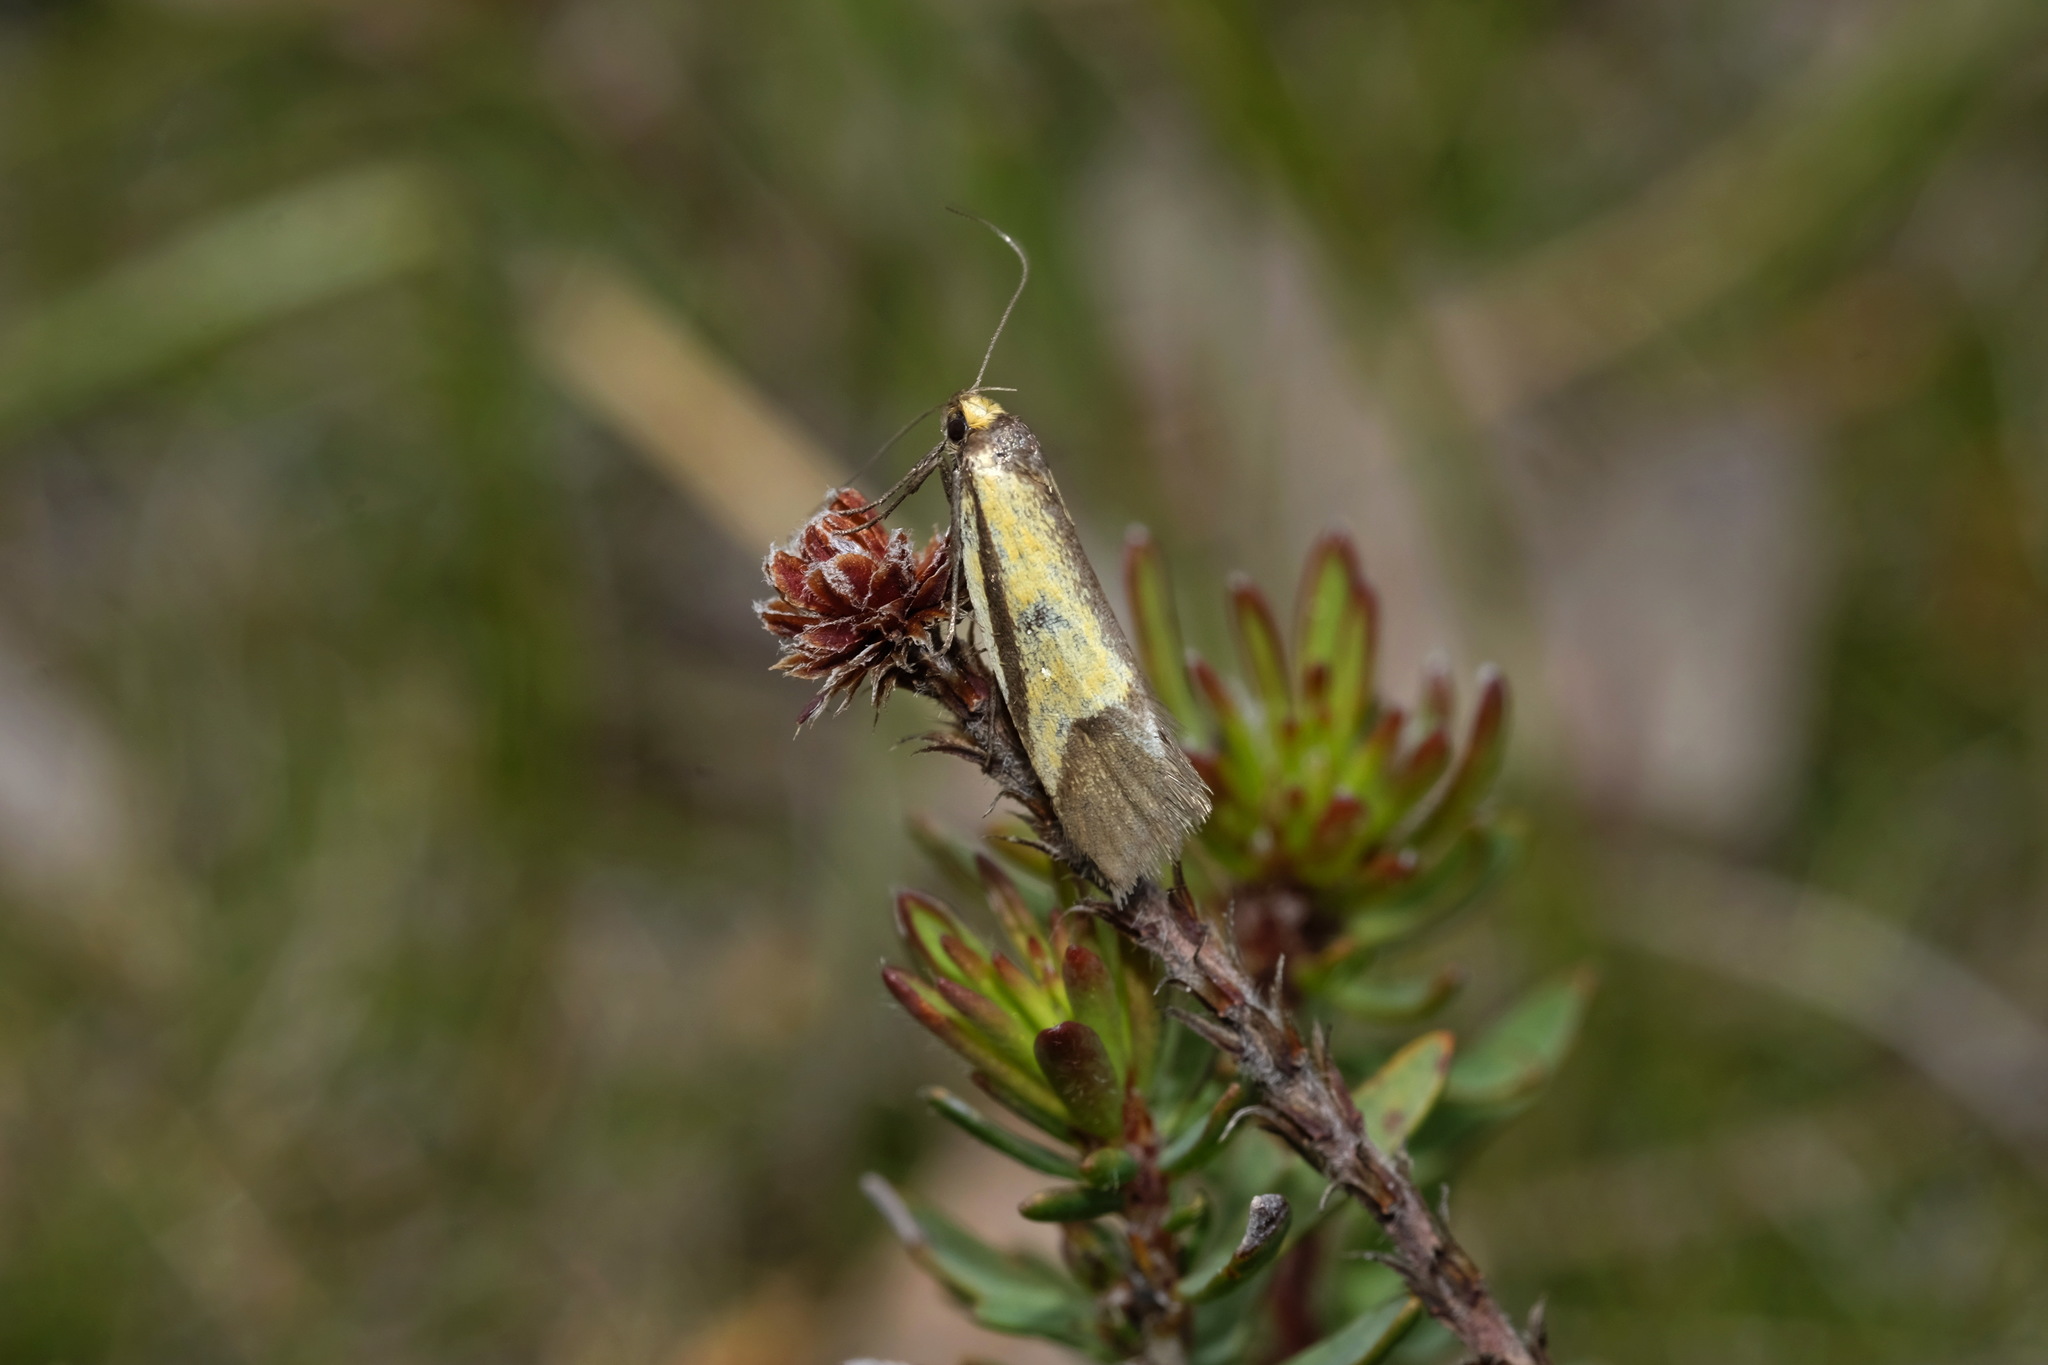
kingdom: Animalia
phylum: Arthropoda
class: Insecta
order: Lepidoptera
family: Oecophoridae
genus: Philobota
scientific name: Philobota arabella
